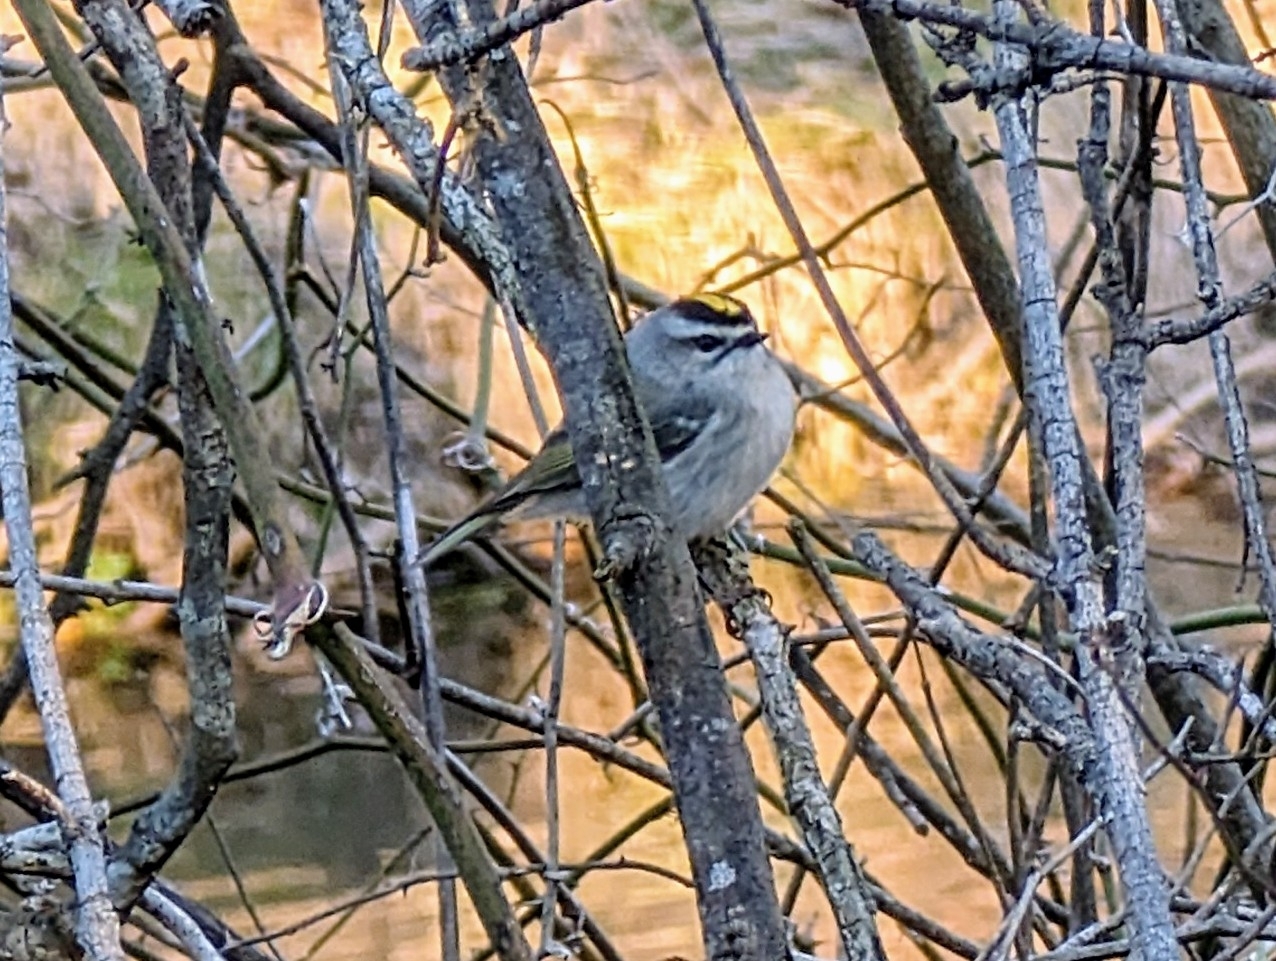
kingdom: Animalia
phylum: Chordata
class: Aves
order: Passeriformes
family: Regulidae
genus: Regulus
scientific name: Regulus satrapa
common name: Golden-crowned kinglet
